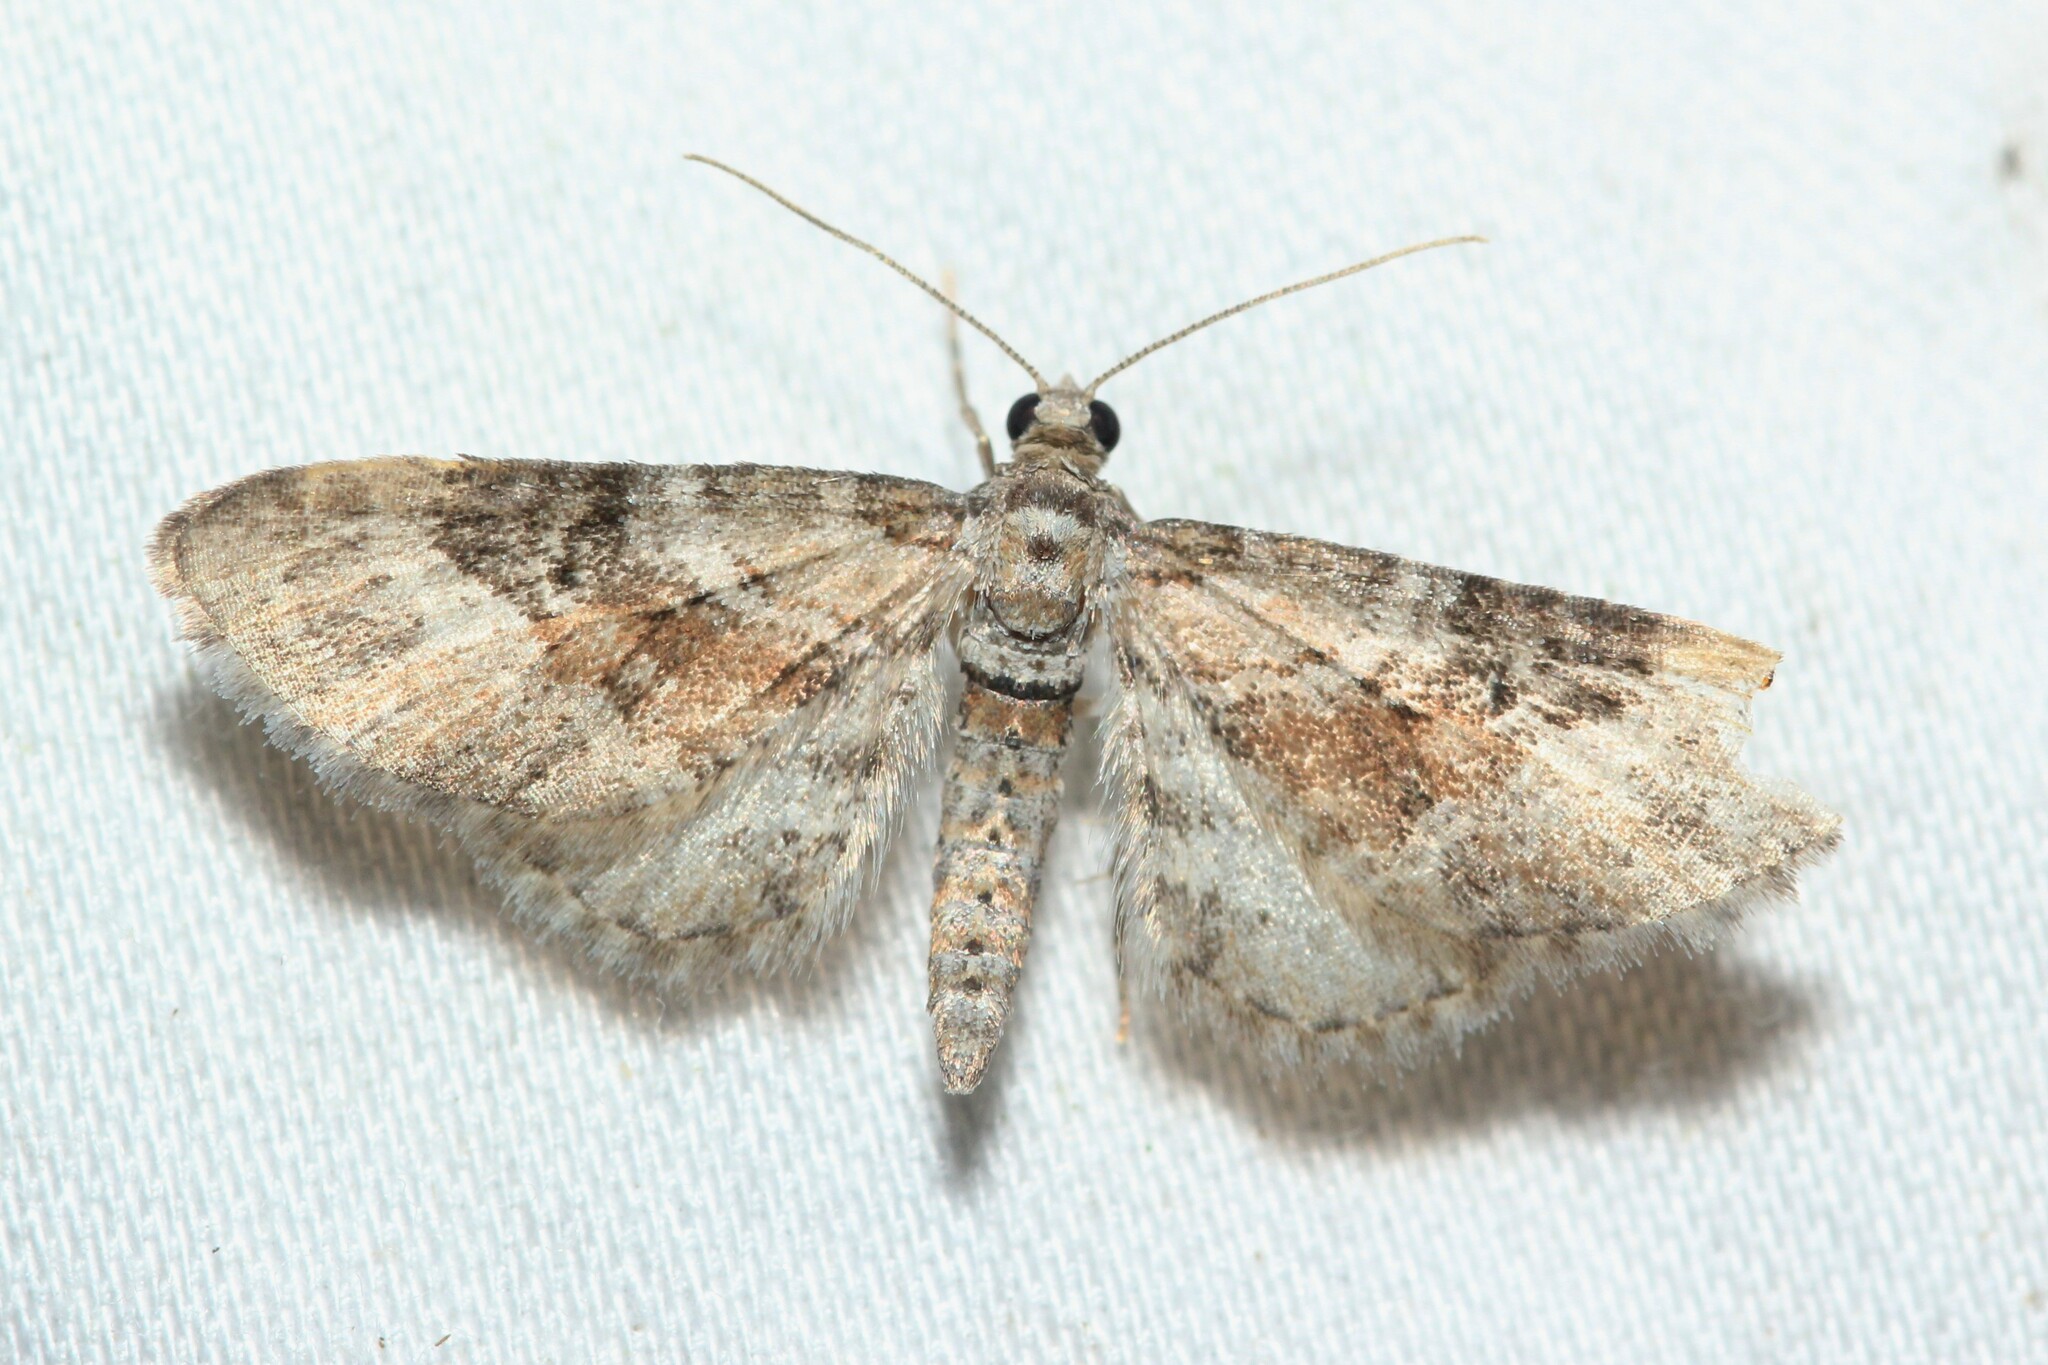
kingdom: Animalia
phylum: Arthropoda
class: Insecta
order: Lepidoptera
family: Geometridae
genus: Eupithecia
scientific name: Eupithecia anticaria
